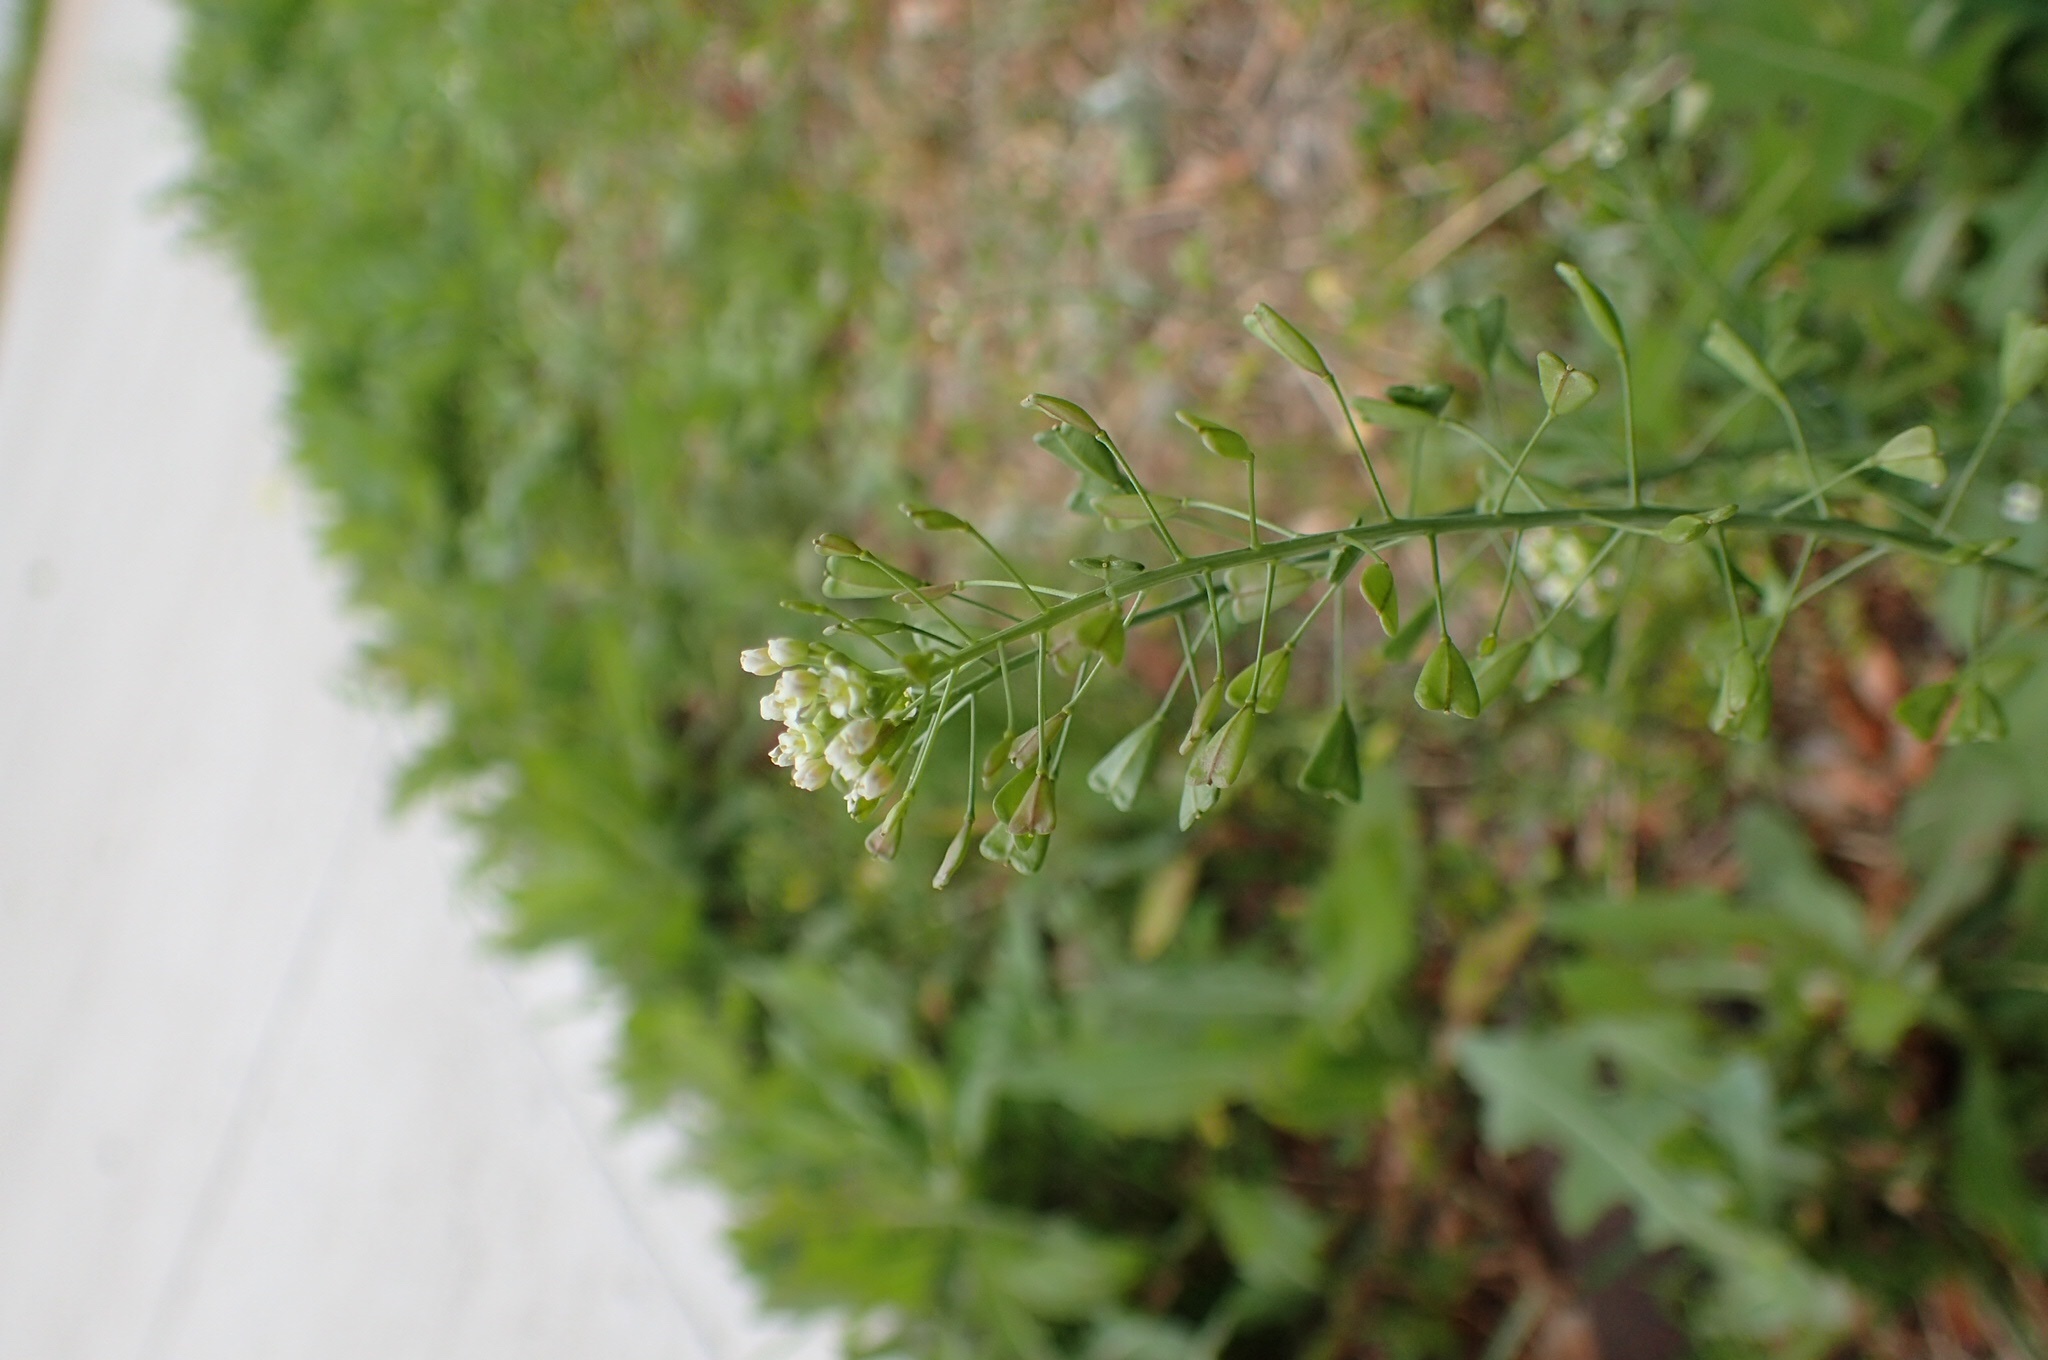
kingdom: Plantae
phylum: Tracheophyta
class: Magnoliopsida
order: Brassicales
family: Brassicaceae
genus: Capsella
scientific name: Capsella bursa-pastoris
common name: Shepherd's purse
